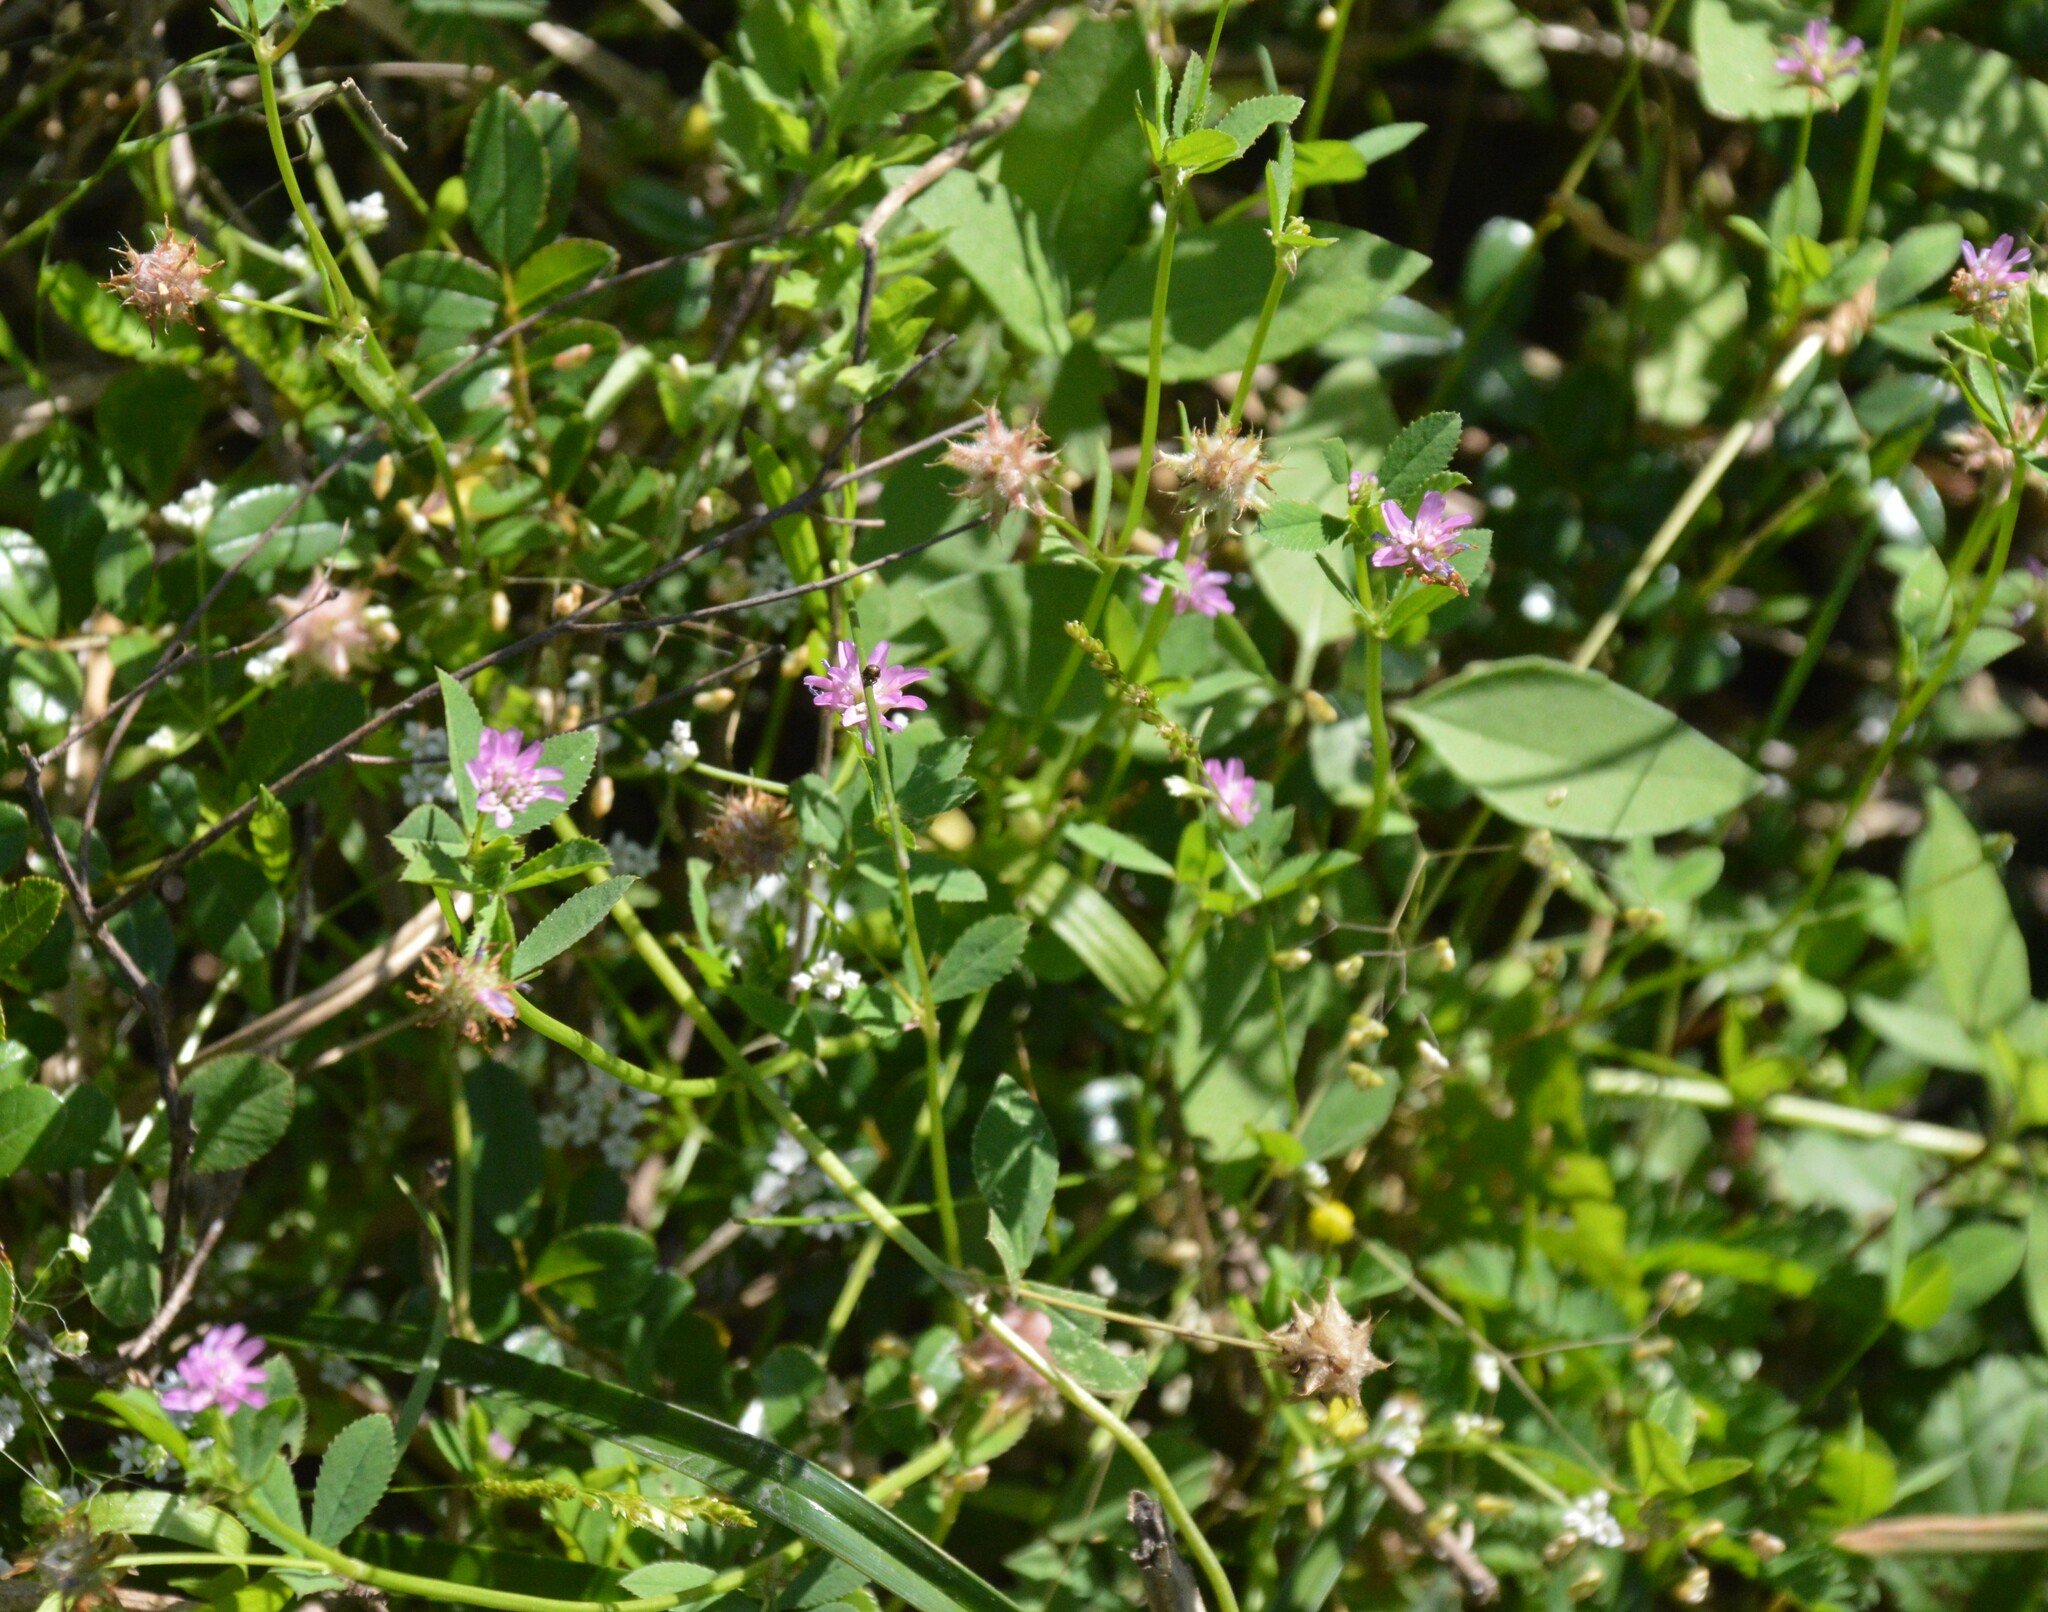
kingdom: Plantae
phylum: Tracheophyta
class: Magnoliopsida
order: Fabales
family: Fabaceae
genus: Trifolium
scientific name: Trifolium resupinatum
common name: Reversed clover
